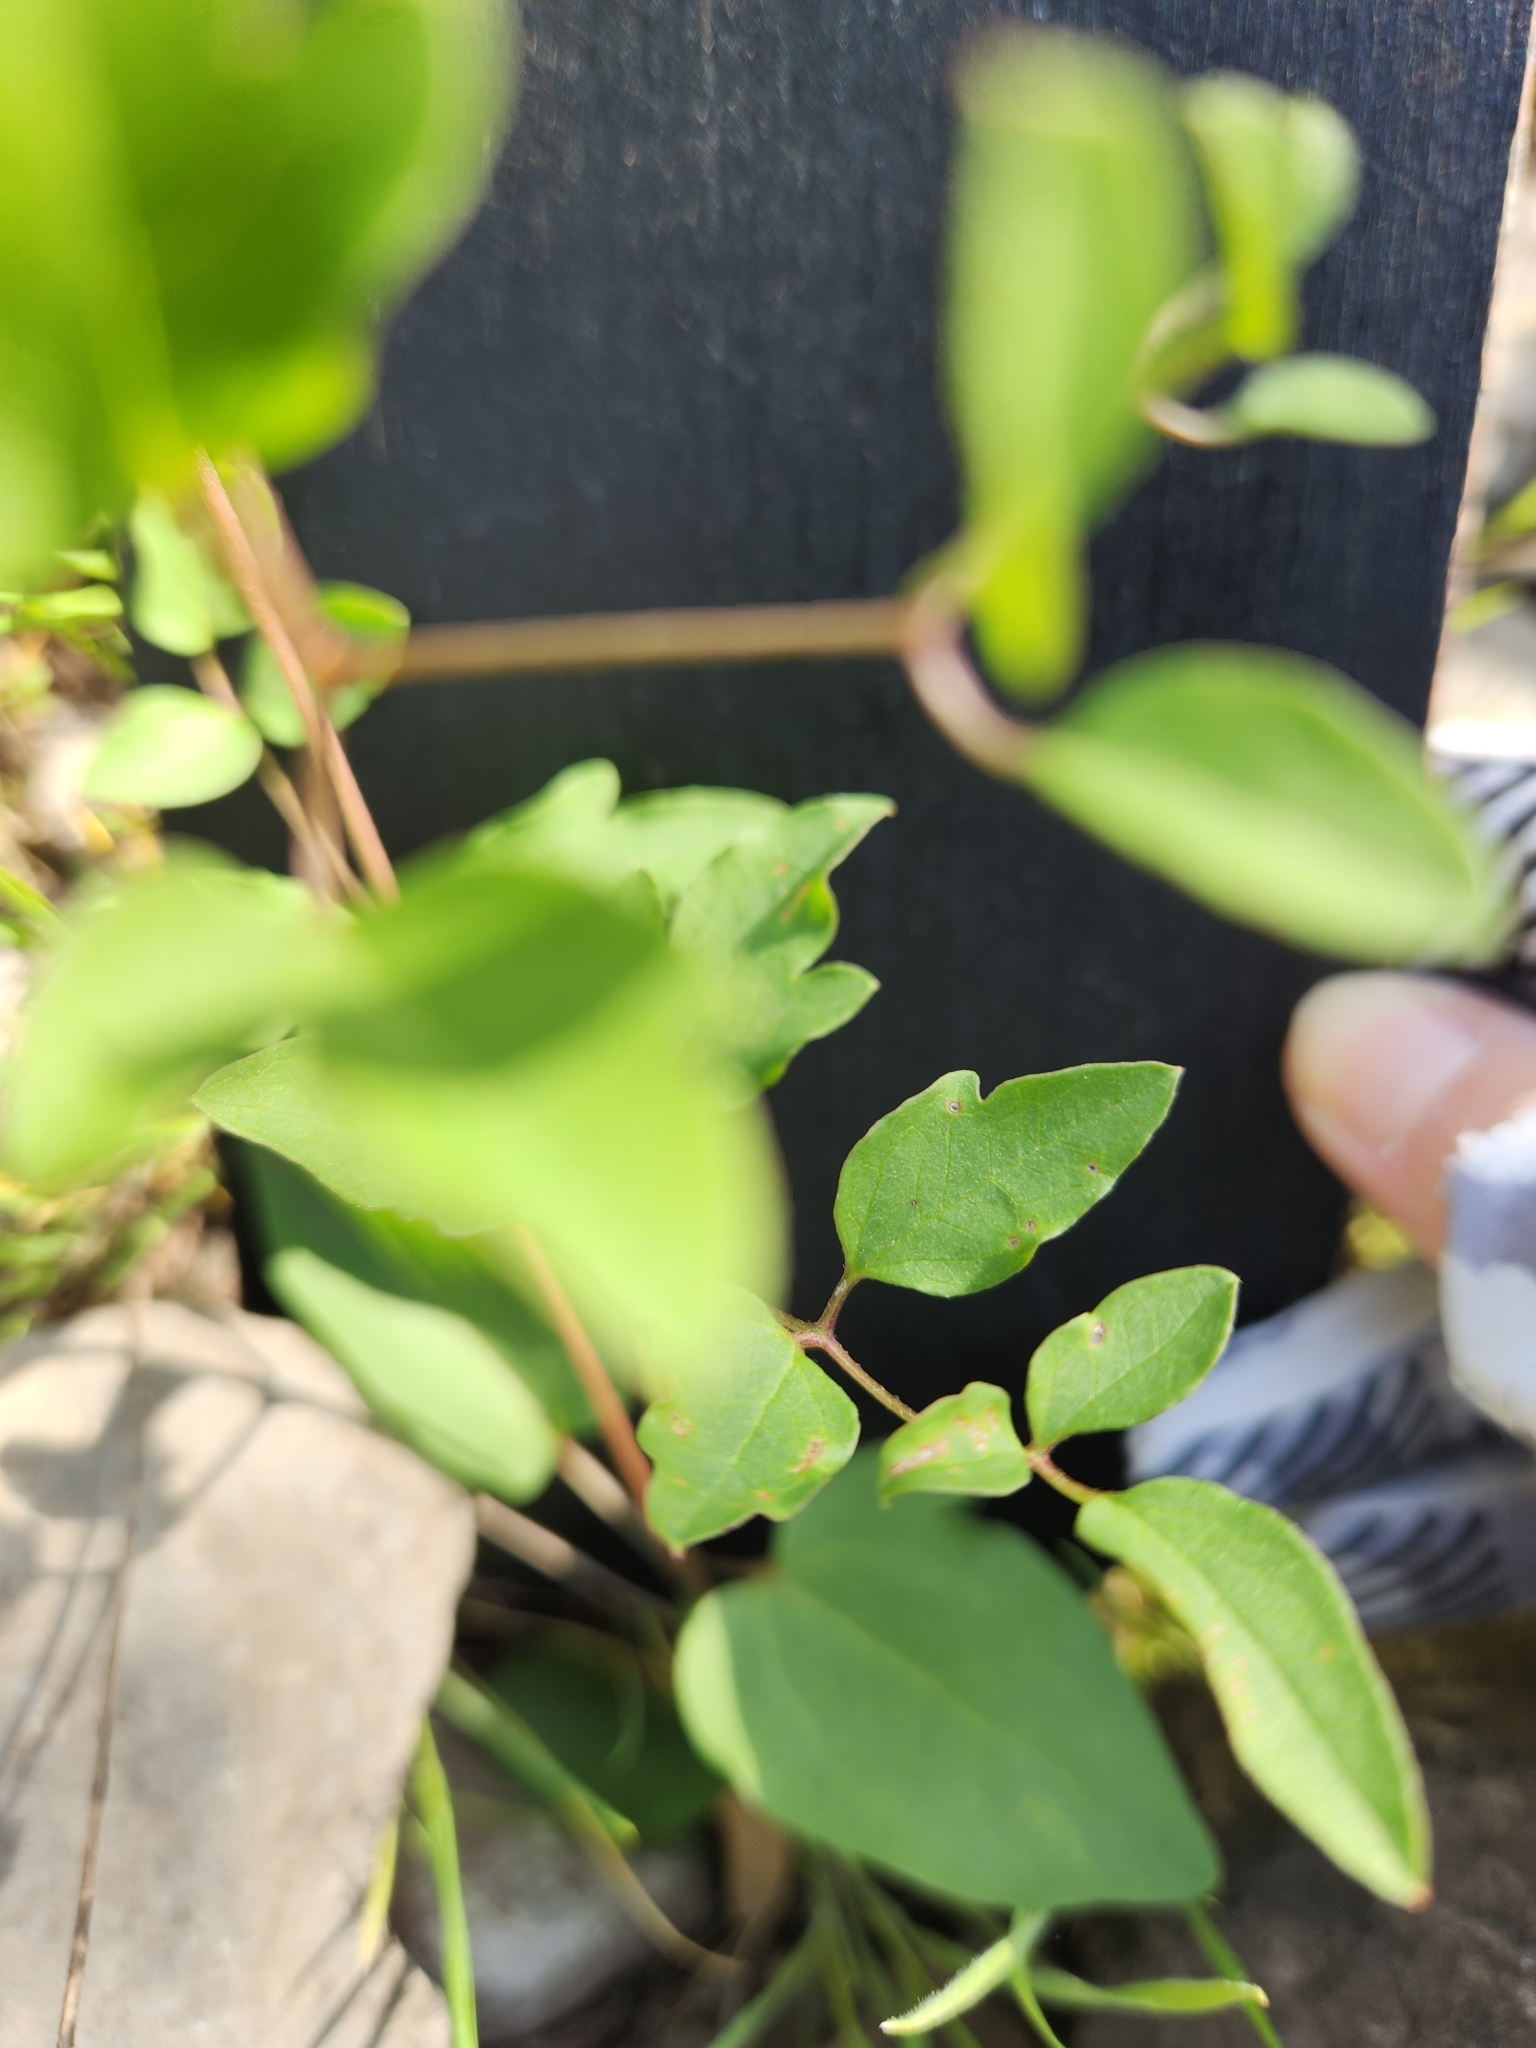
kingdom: Plantae
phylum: Tracheophyta
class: Magnoliopsida
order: Ranunculales
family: Ranunculaceae
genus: Clematis
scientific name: Clematis pitcheri
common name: Bellflower clematis
